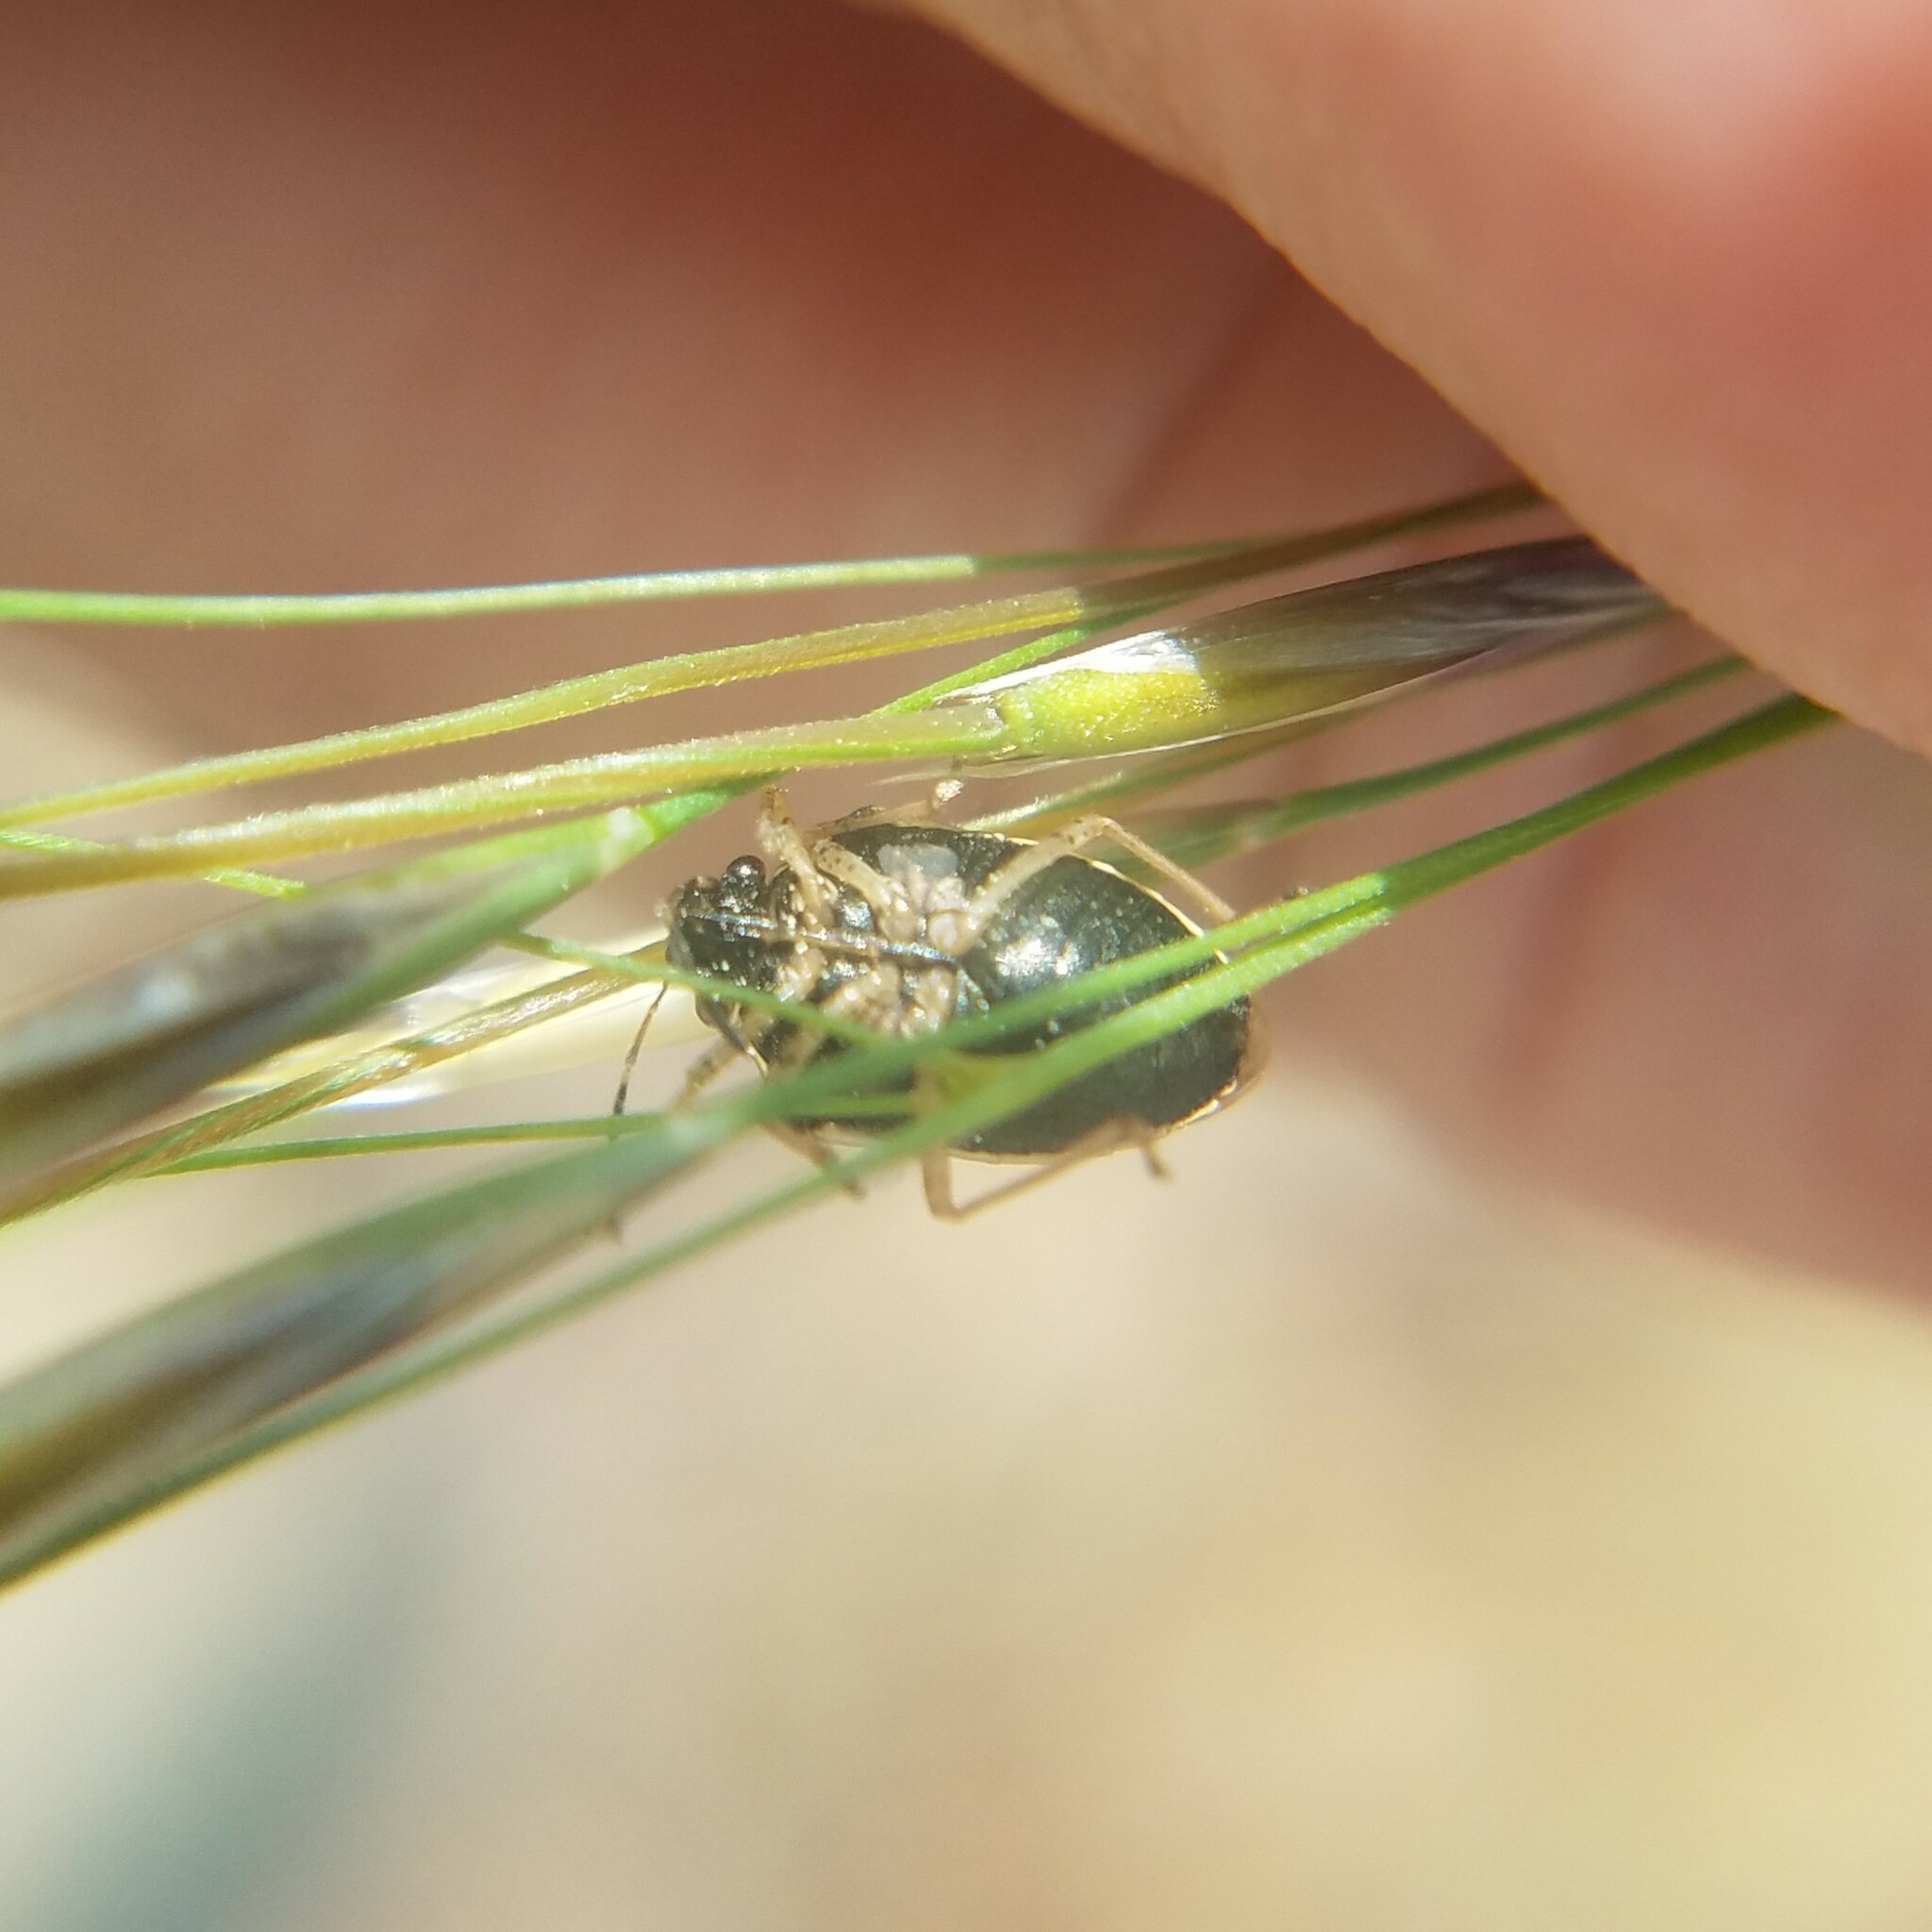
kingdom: Animalia
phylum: Arthropoda
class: Insecta
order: Hemiptera
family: Pentatomidae
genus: Mormidea
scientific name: Mormidea lugens
